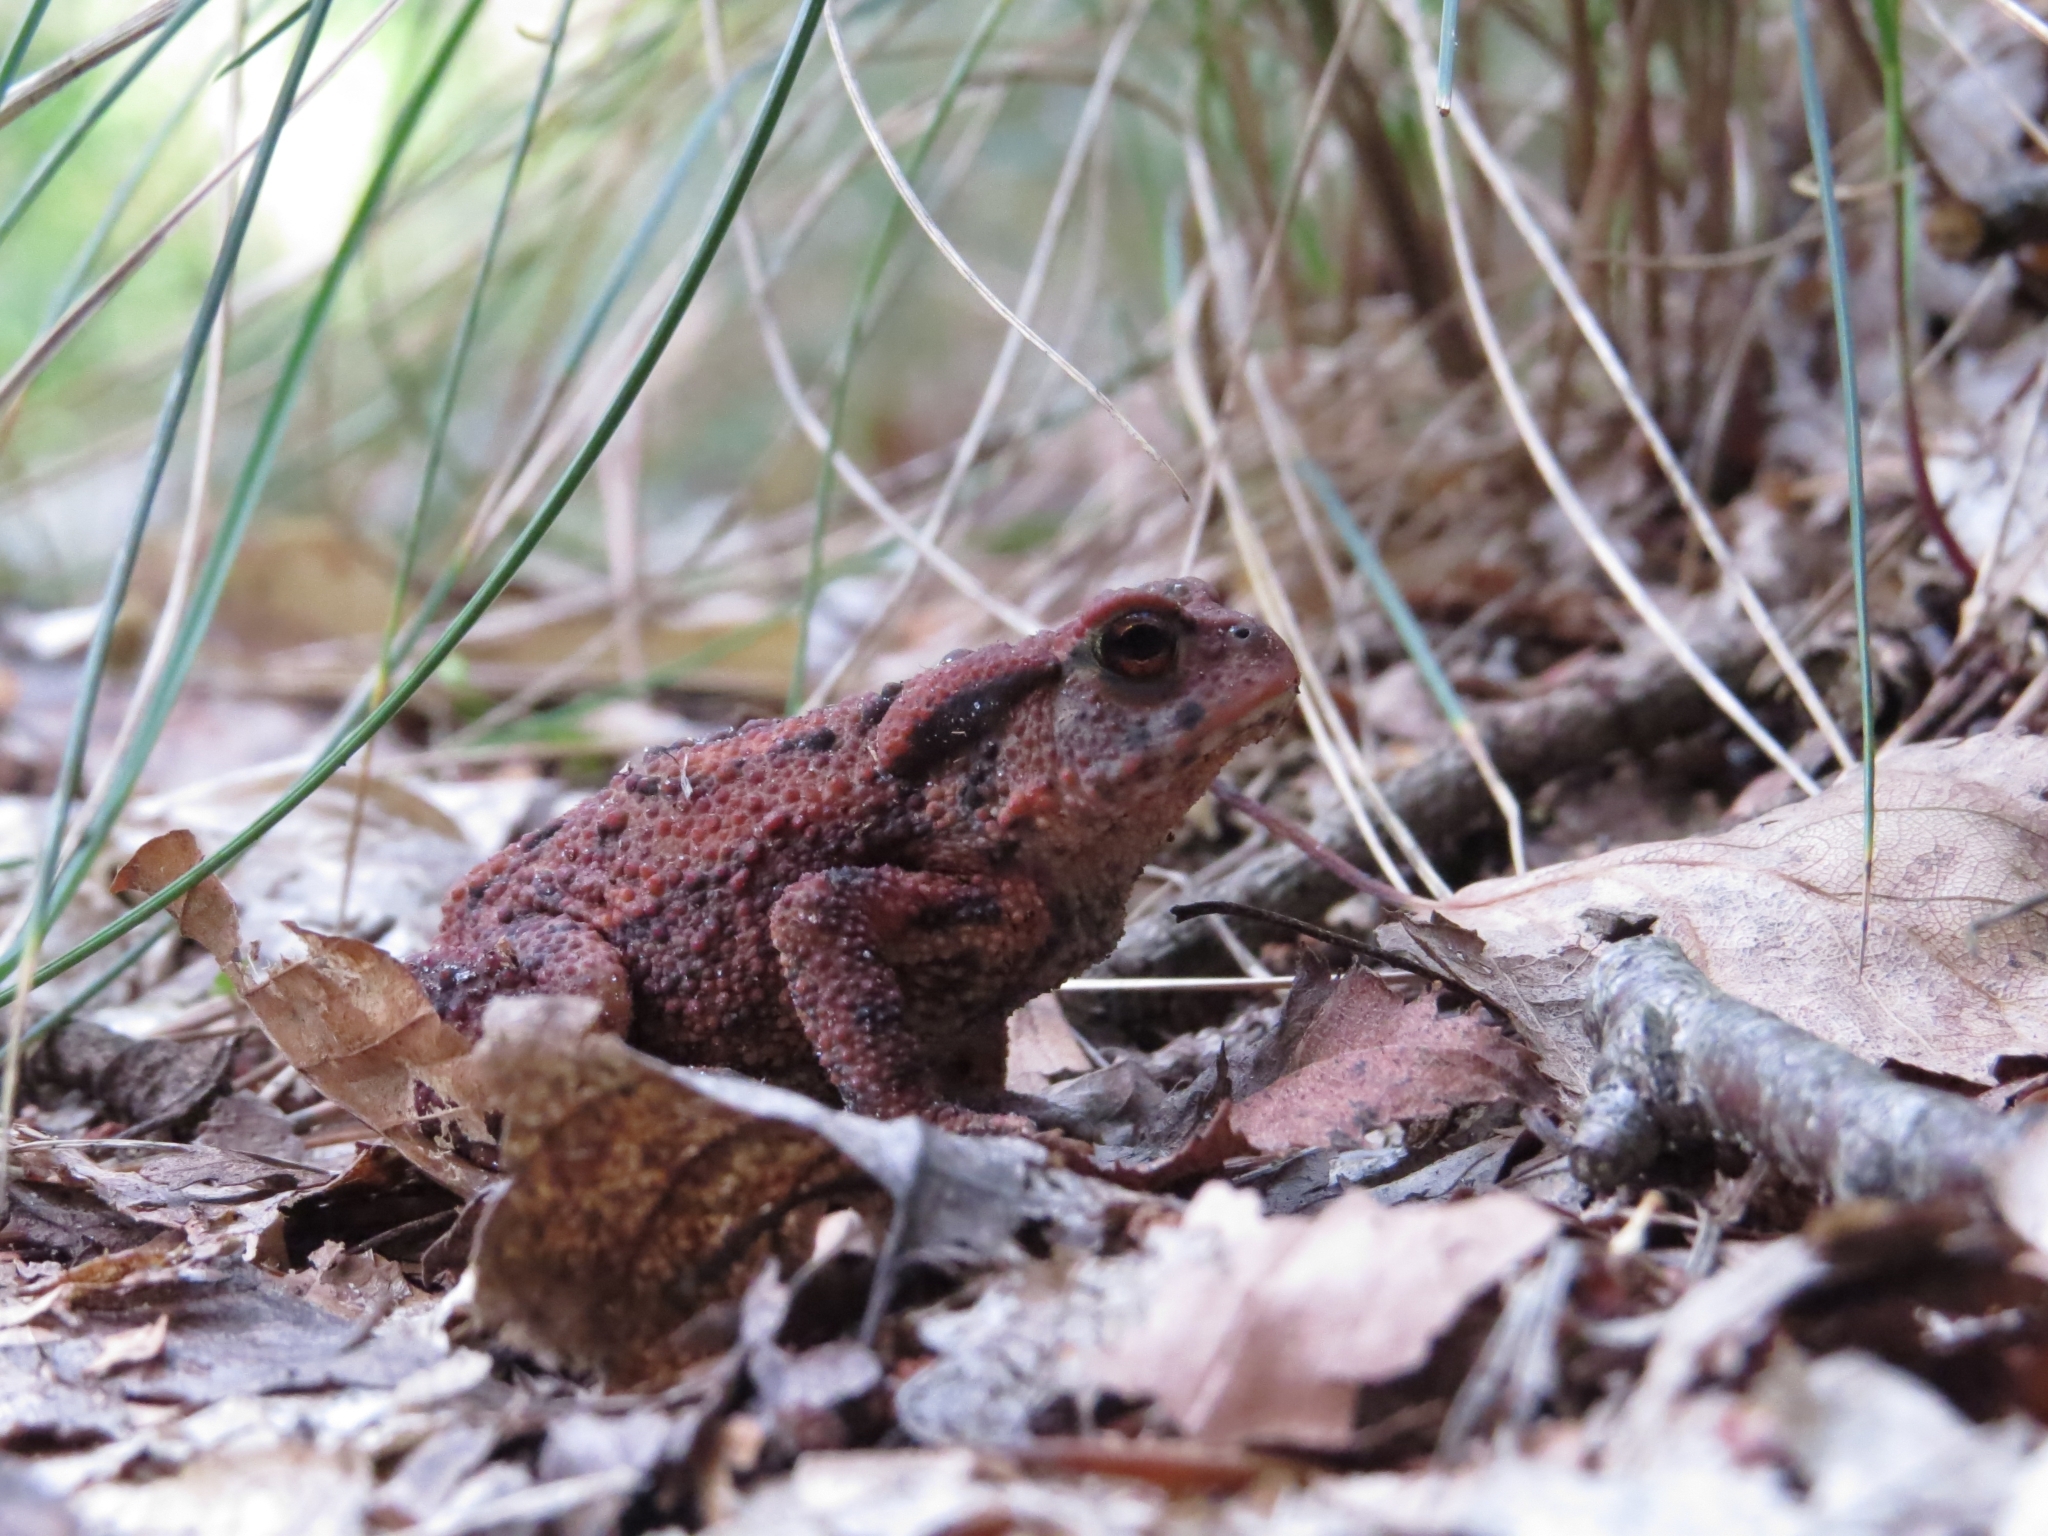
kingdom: Animalia
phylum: Chordata
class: Amphibia
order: Anura
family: Bufonidae
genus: Bufo
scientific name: Bufo bufo
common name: Common toad
